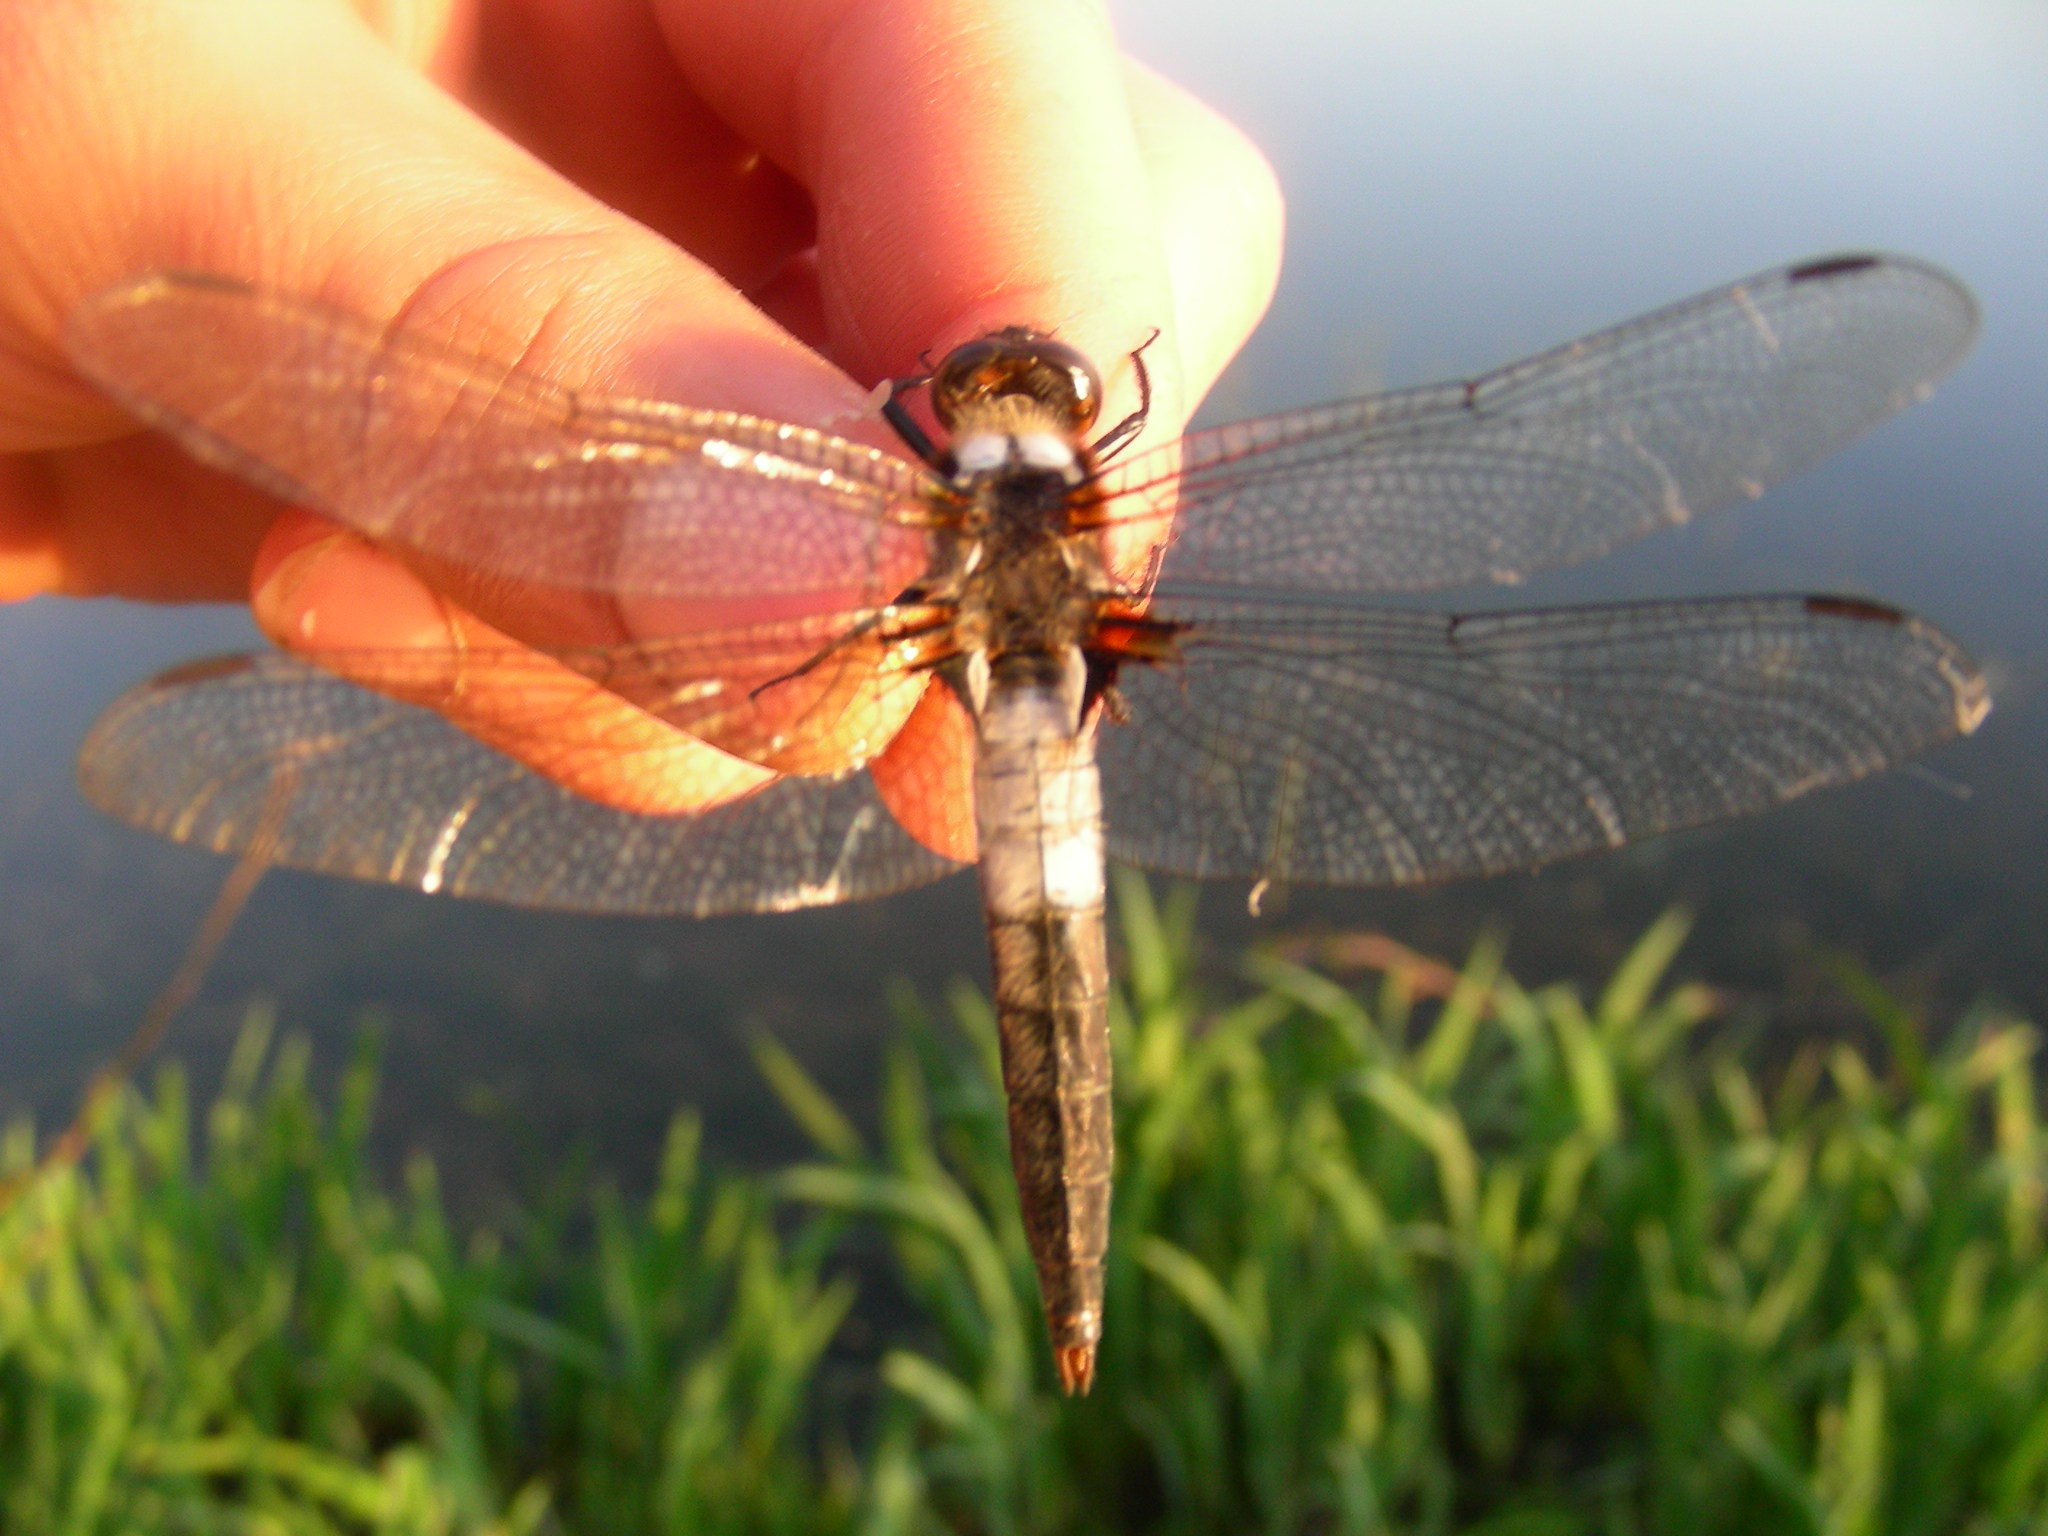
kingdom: Animalia
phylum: Arthropoda
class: Insecta
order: Odonata
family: Libellulidae
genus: Ladona
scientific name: Ladona julia
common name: Chalk-fronted corporal
